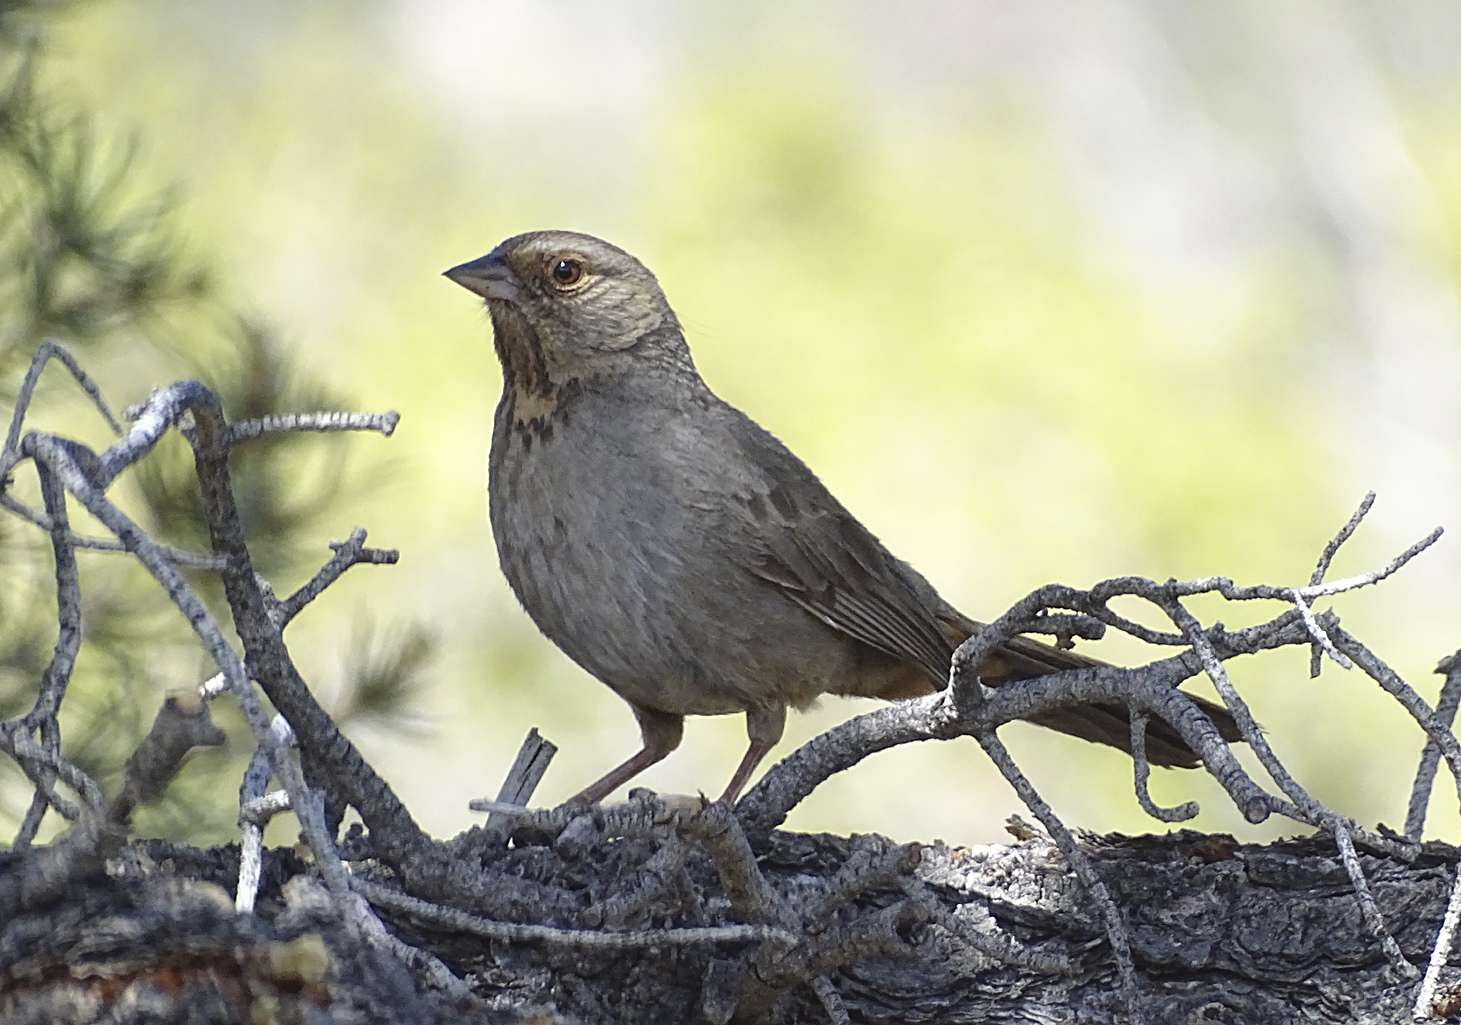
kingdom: Animalia
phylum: Chordata
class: Aves
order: Passeriformes
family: Passerellidae
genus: Melozone
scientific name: Melozone crissalis
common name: California towhee
